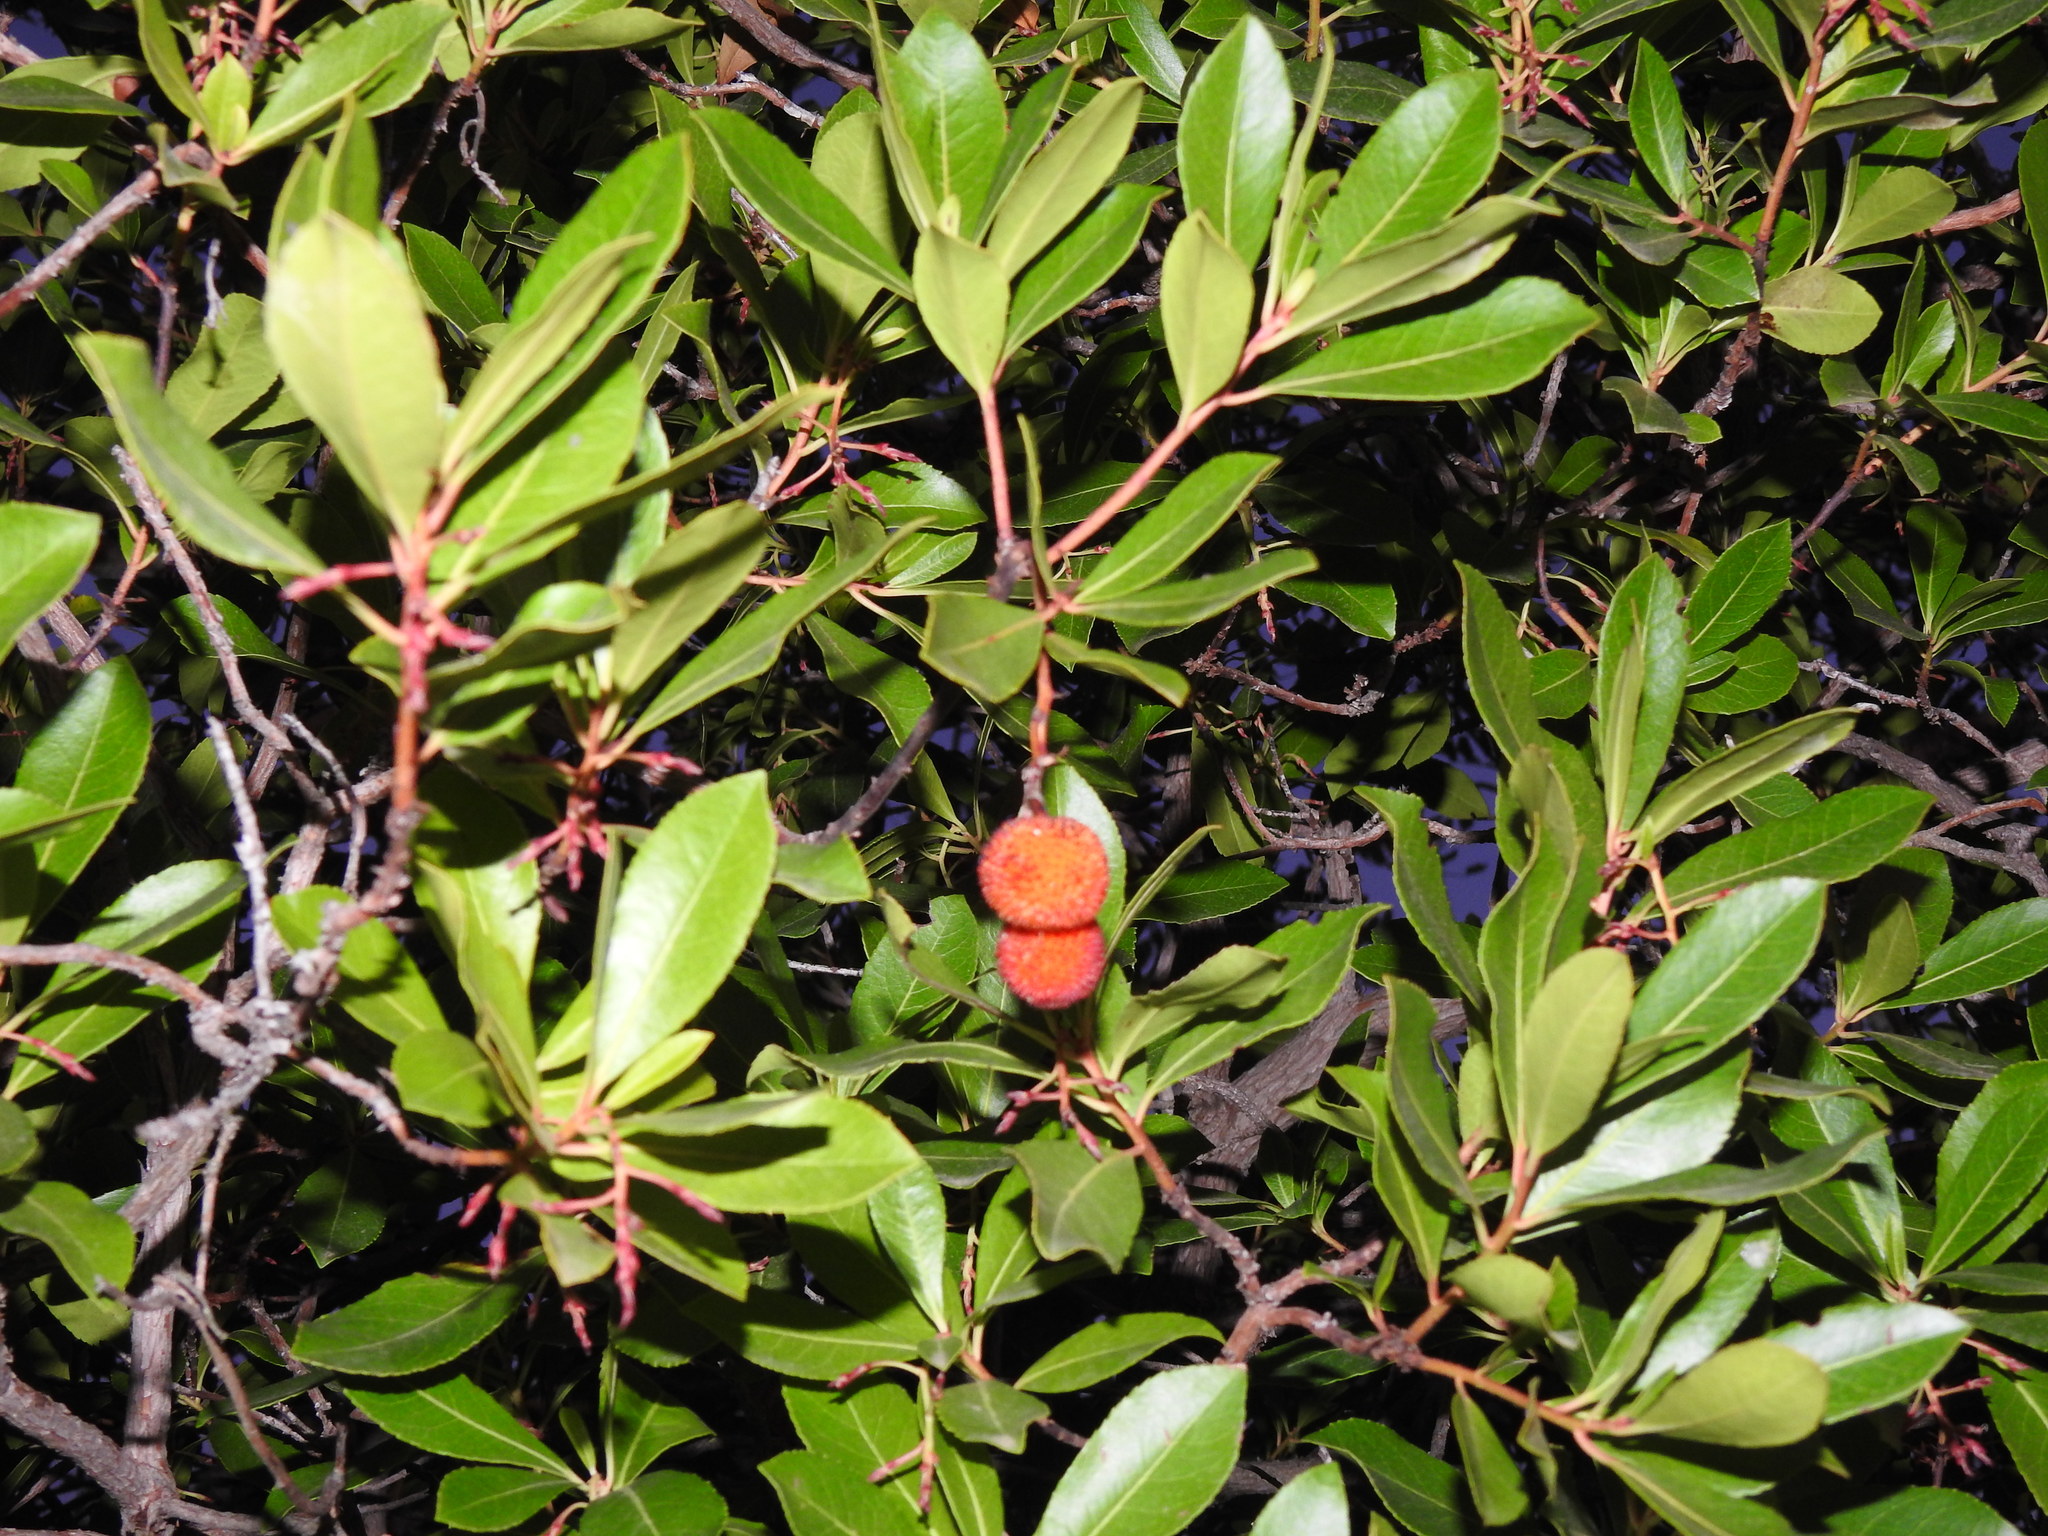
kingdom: Plantae
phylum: Tracheophyta
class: Magnoliopsida
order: Ericales
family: Ericaceae
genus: Arbutus
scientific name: Arbutus unedo
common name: Strawberry-tree
